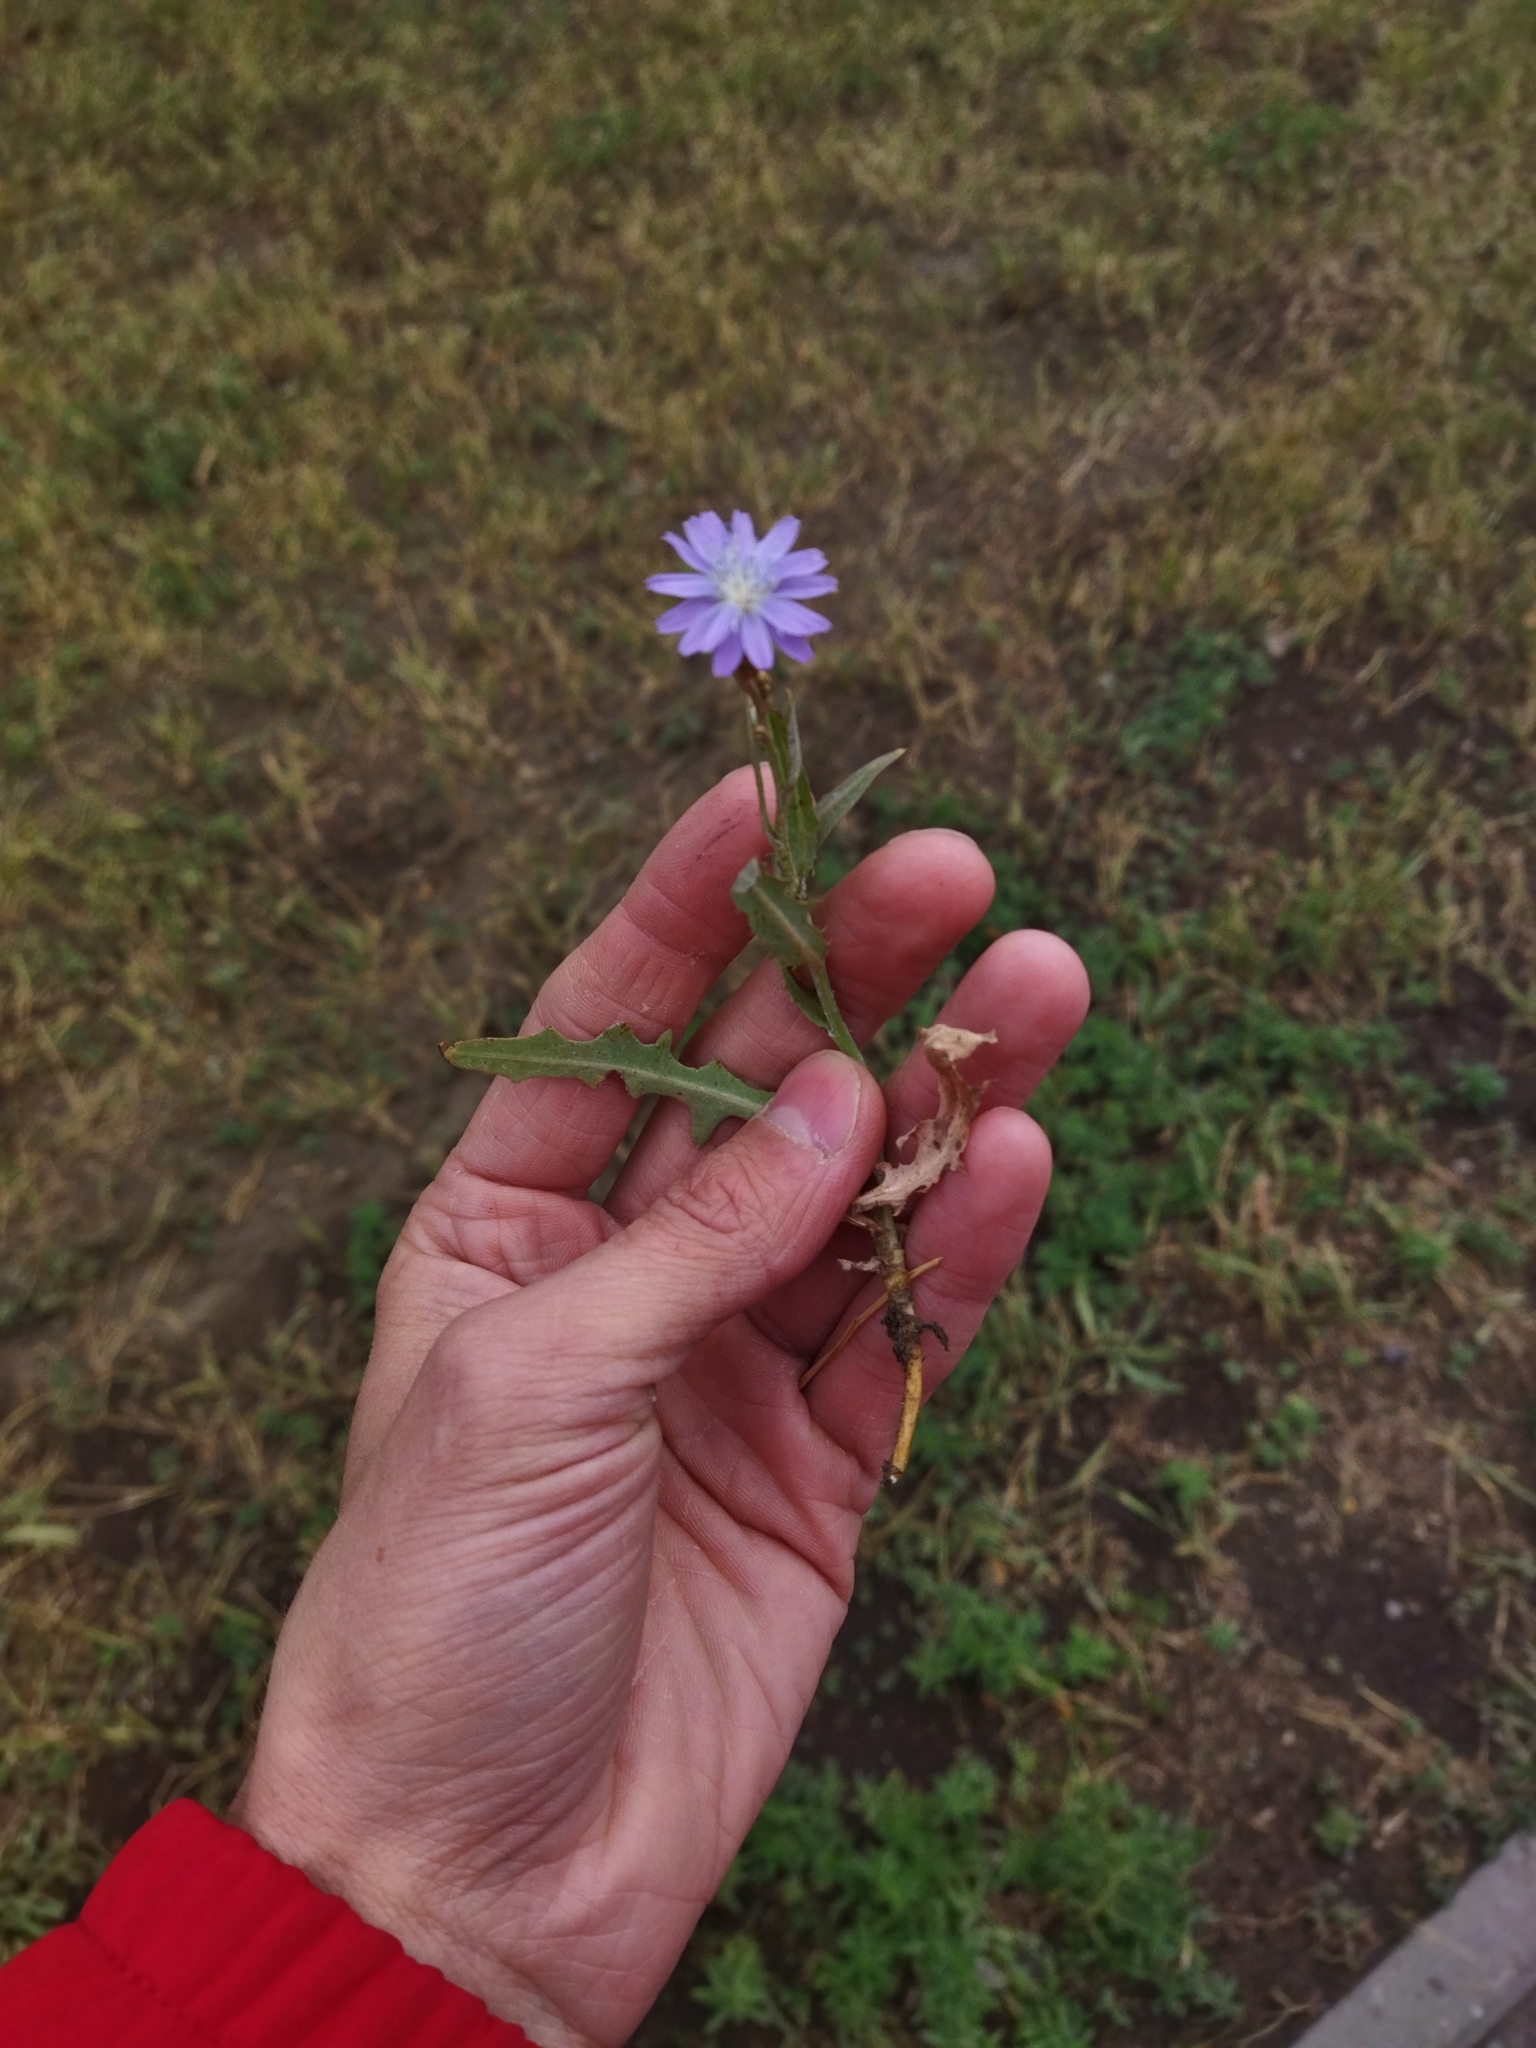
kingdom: Plantae
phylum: Tracheophyta
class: Magnoliopsida
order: Asterales
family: Asteraceae
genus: Lactuca
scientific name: Lactuca tatarica
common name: Blue lettuce
